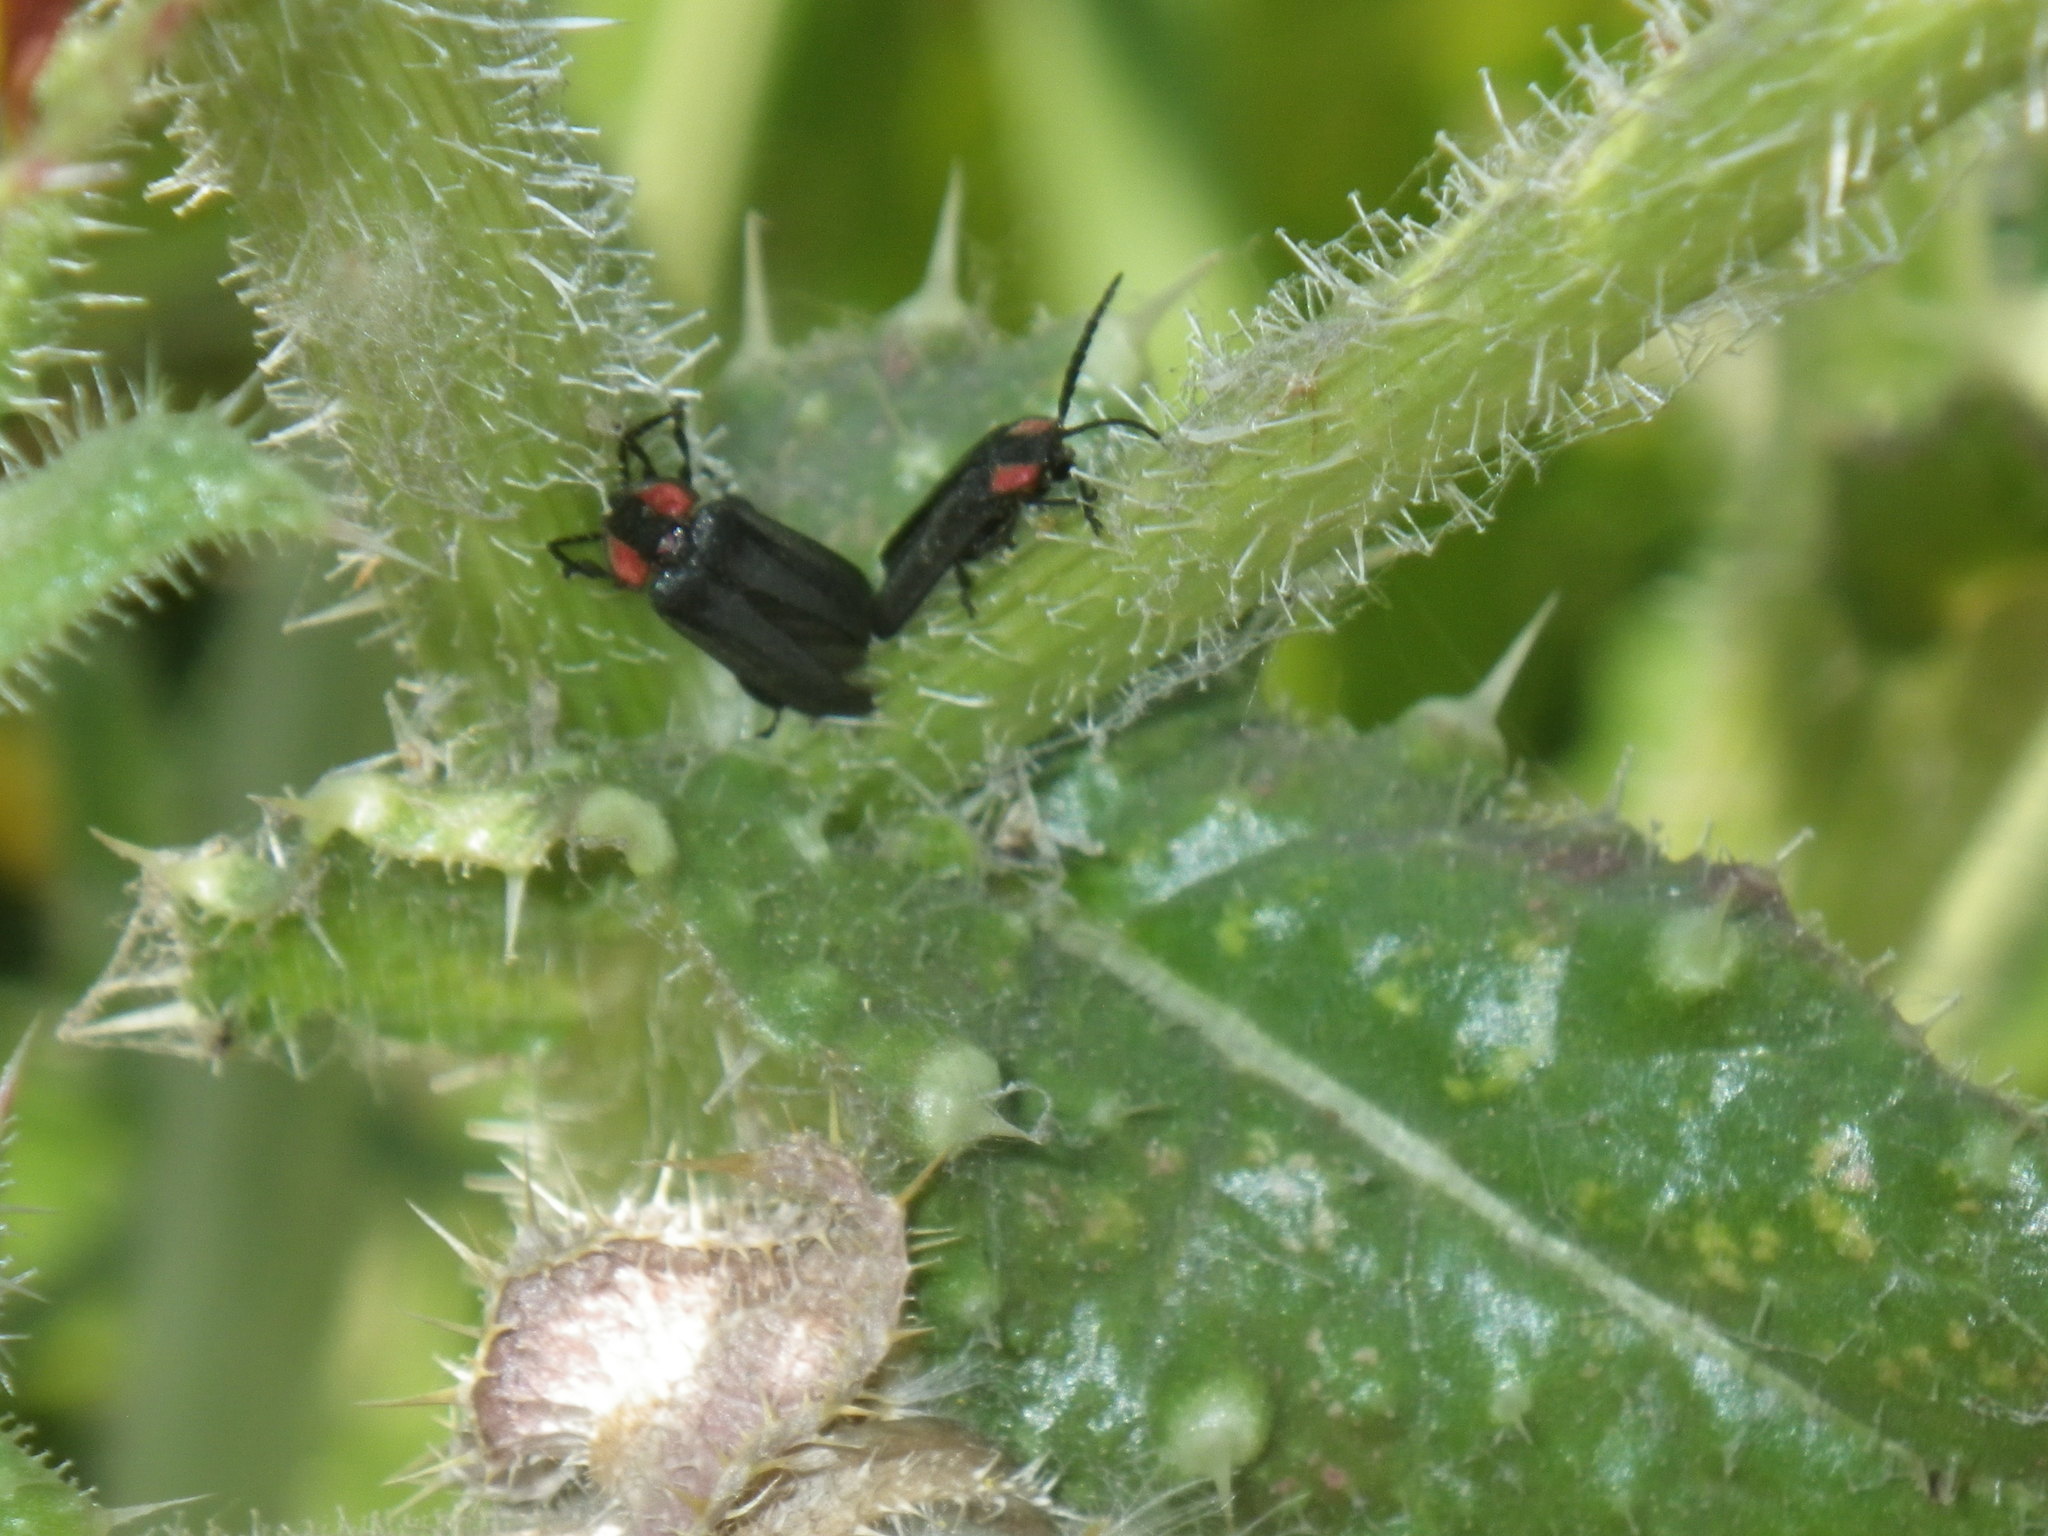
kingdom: Animalia
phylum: Arthropoda
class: Insecta
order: Coleoptera
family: Lampyridae
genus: Photinus
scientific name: Photinus californica
